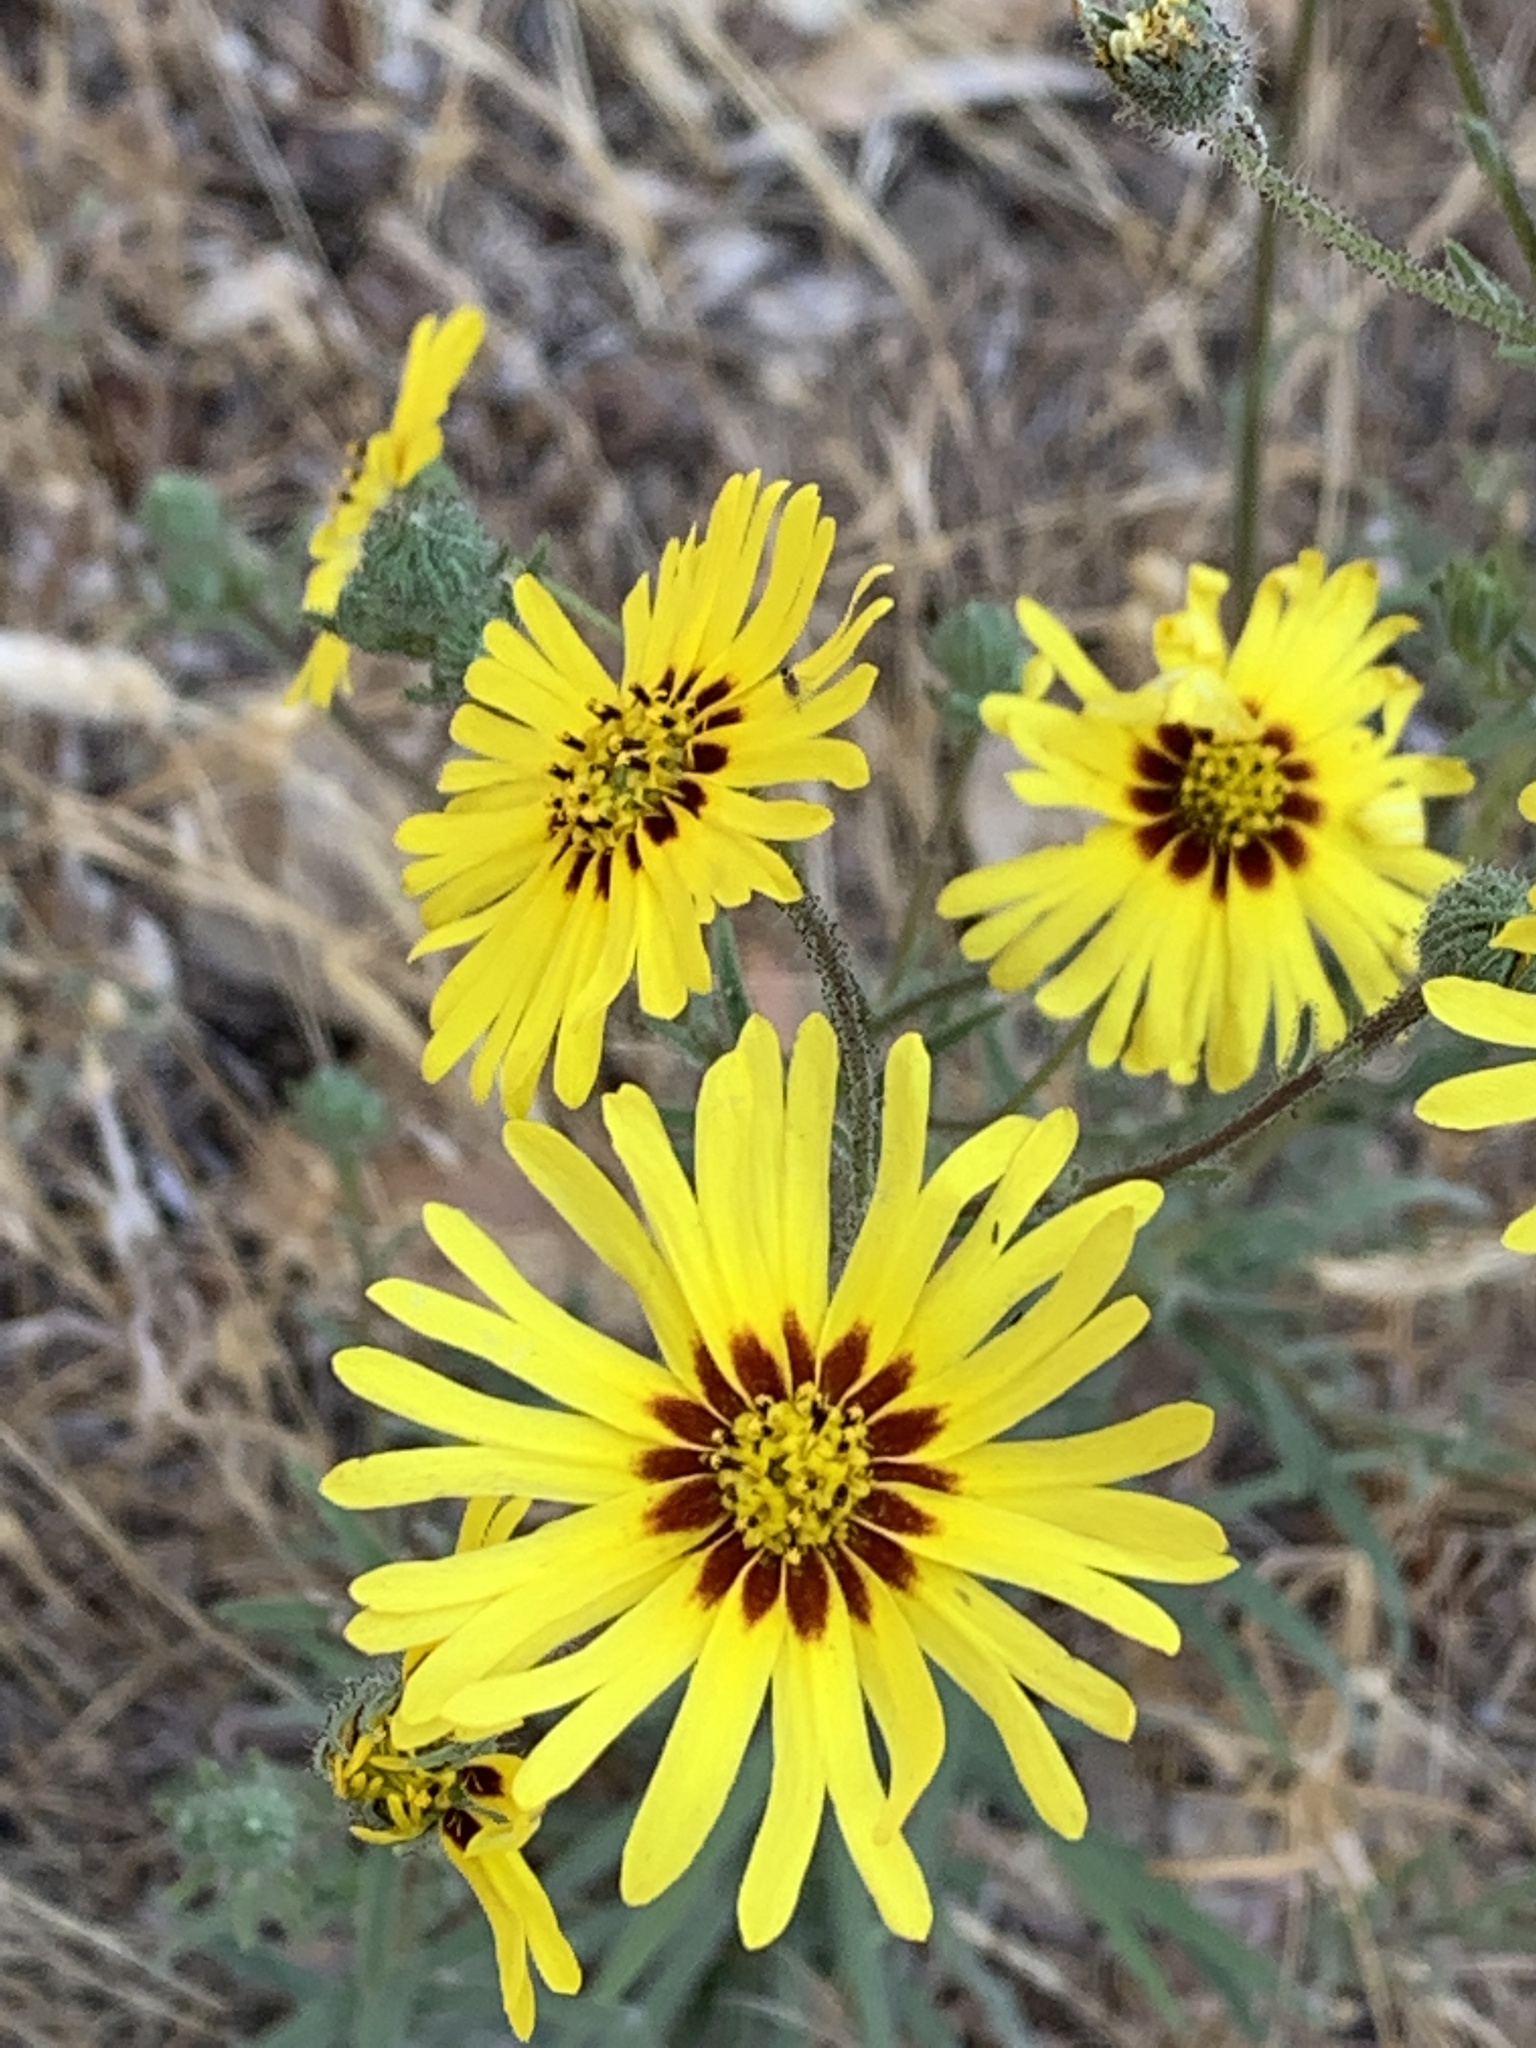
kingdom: Plantae
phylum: Tracheophyta
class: Magnoliopsida
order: Asterales
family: Asteraceae
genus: Madia
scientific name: Madia elegans
